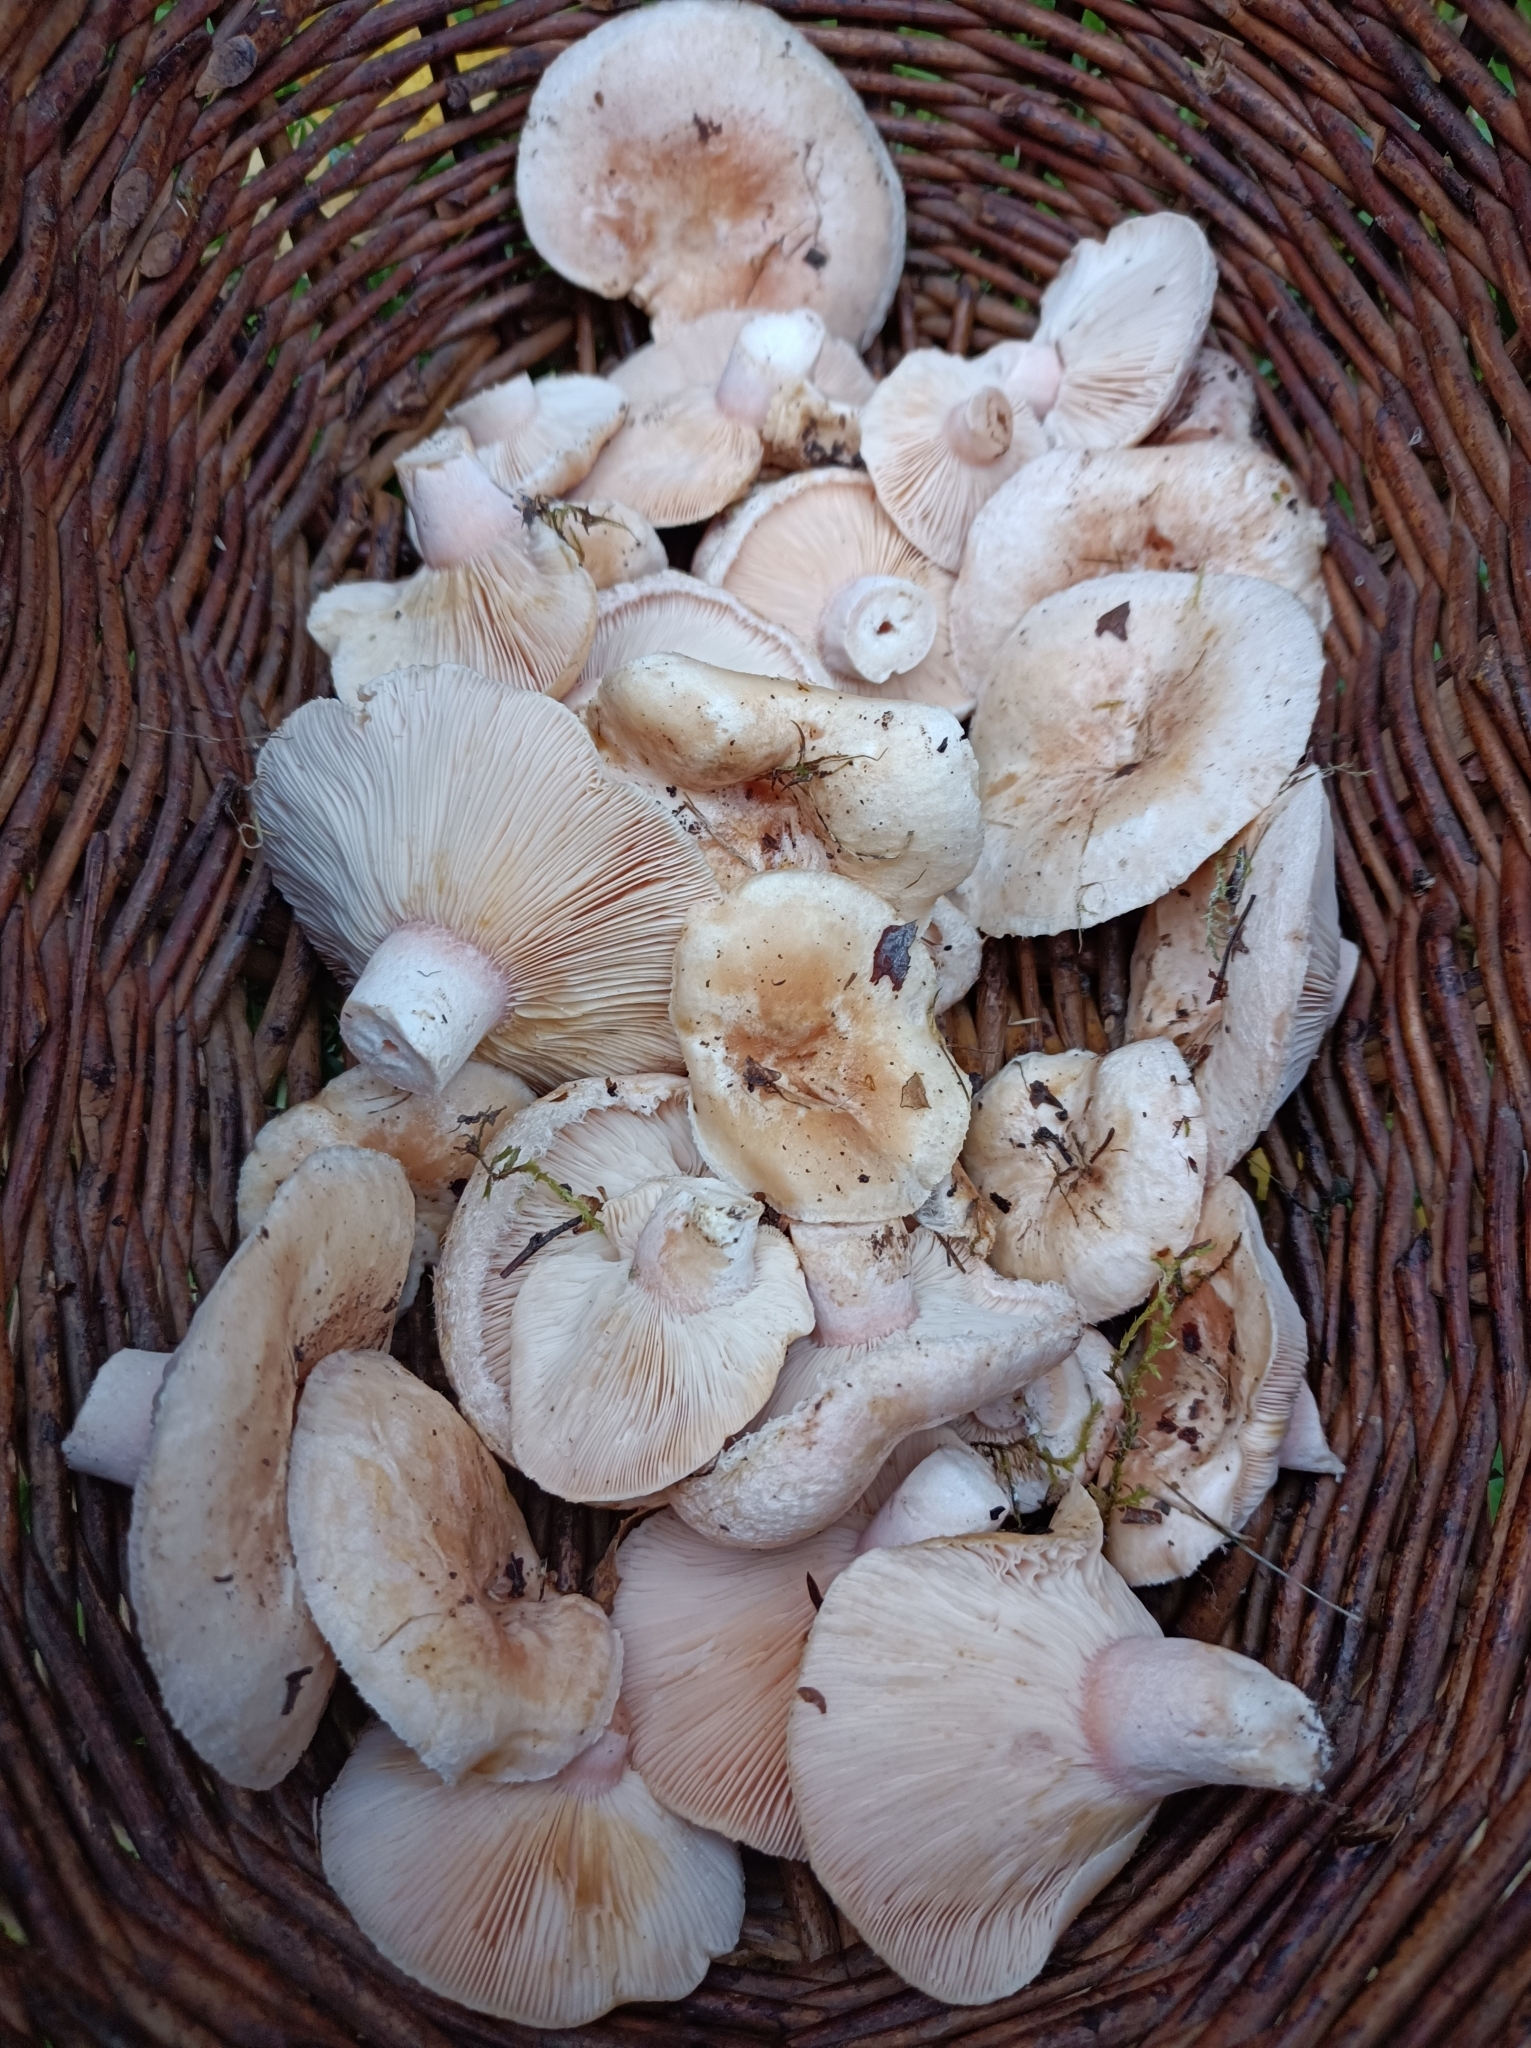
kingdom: Fungi
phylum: Basidiomycota
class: Agaricomycetes
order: Russulales
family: Russulaceae
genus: Lactarius
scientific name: Lactarius pubescens
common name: Bearded milkcap
